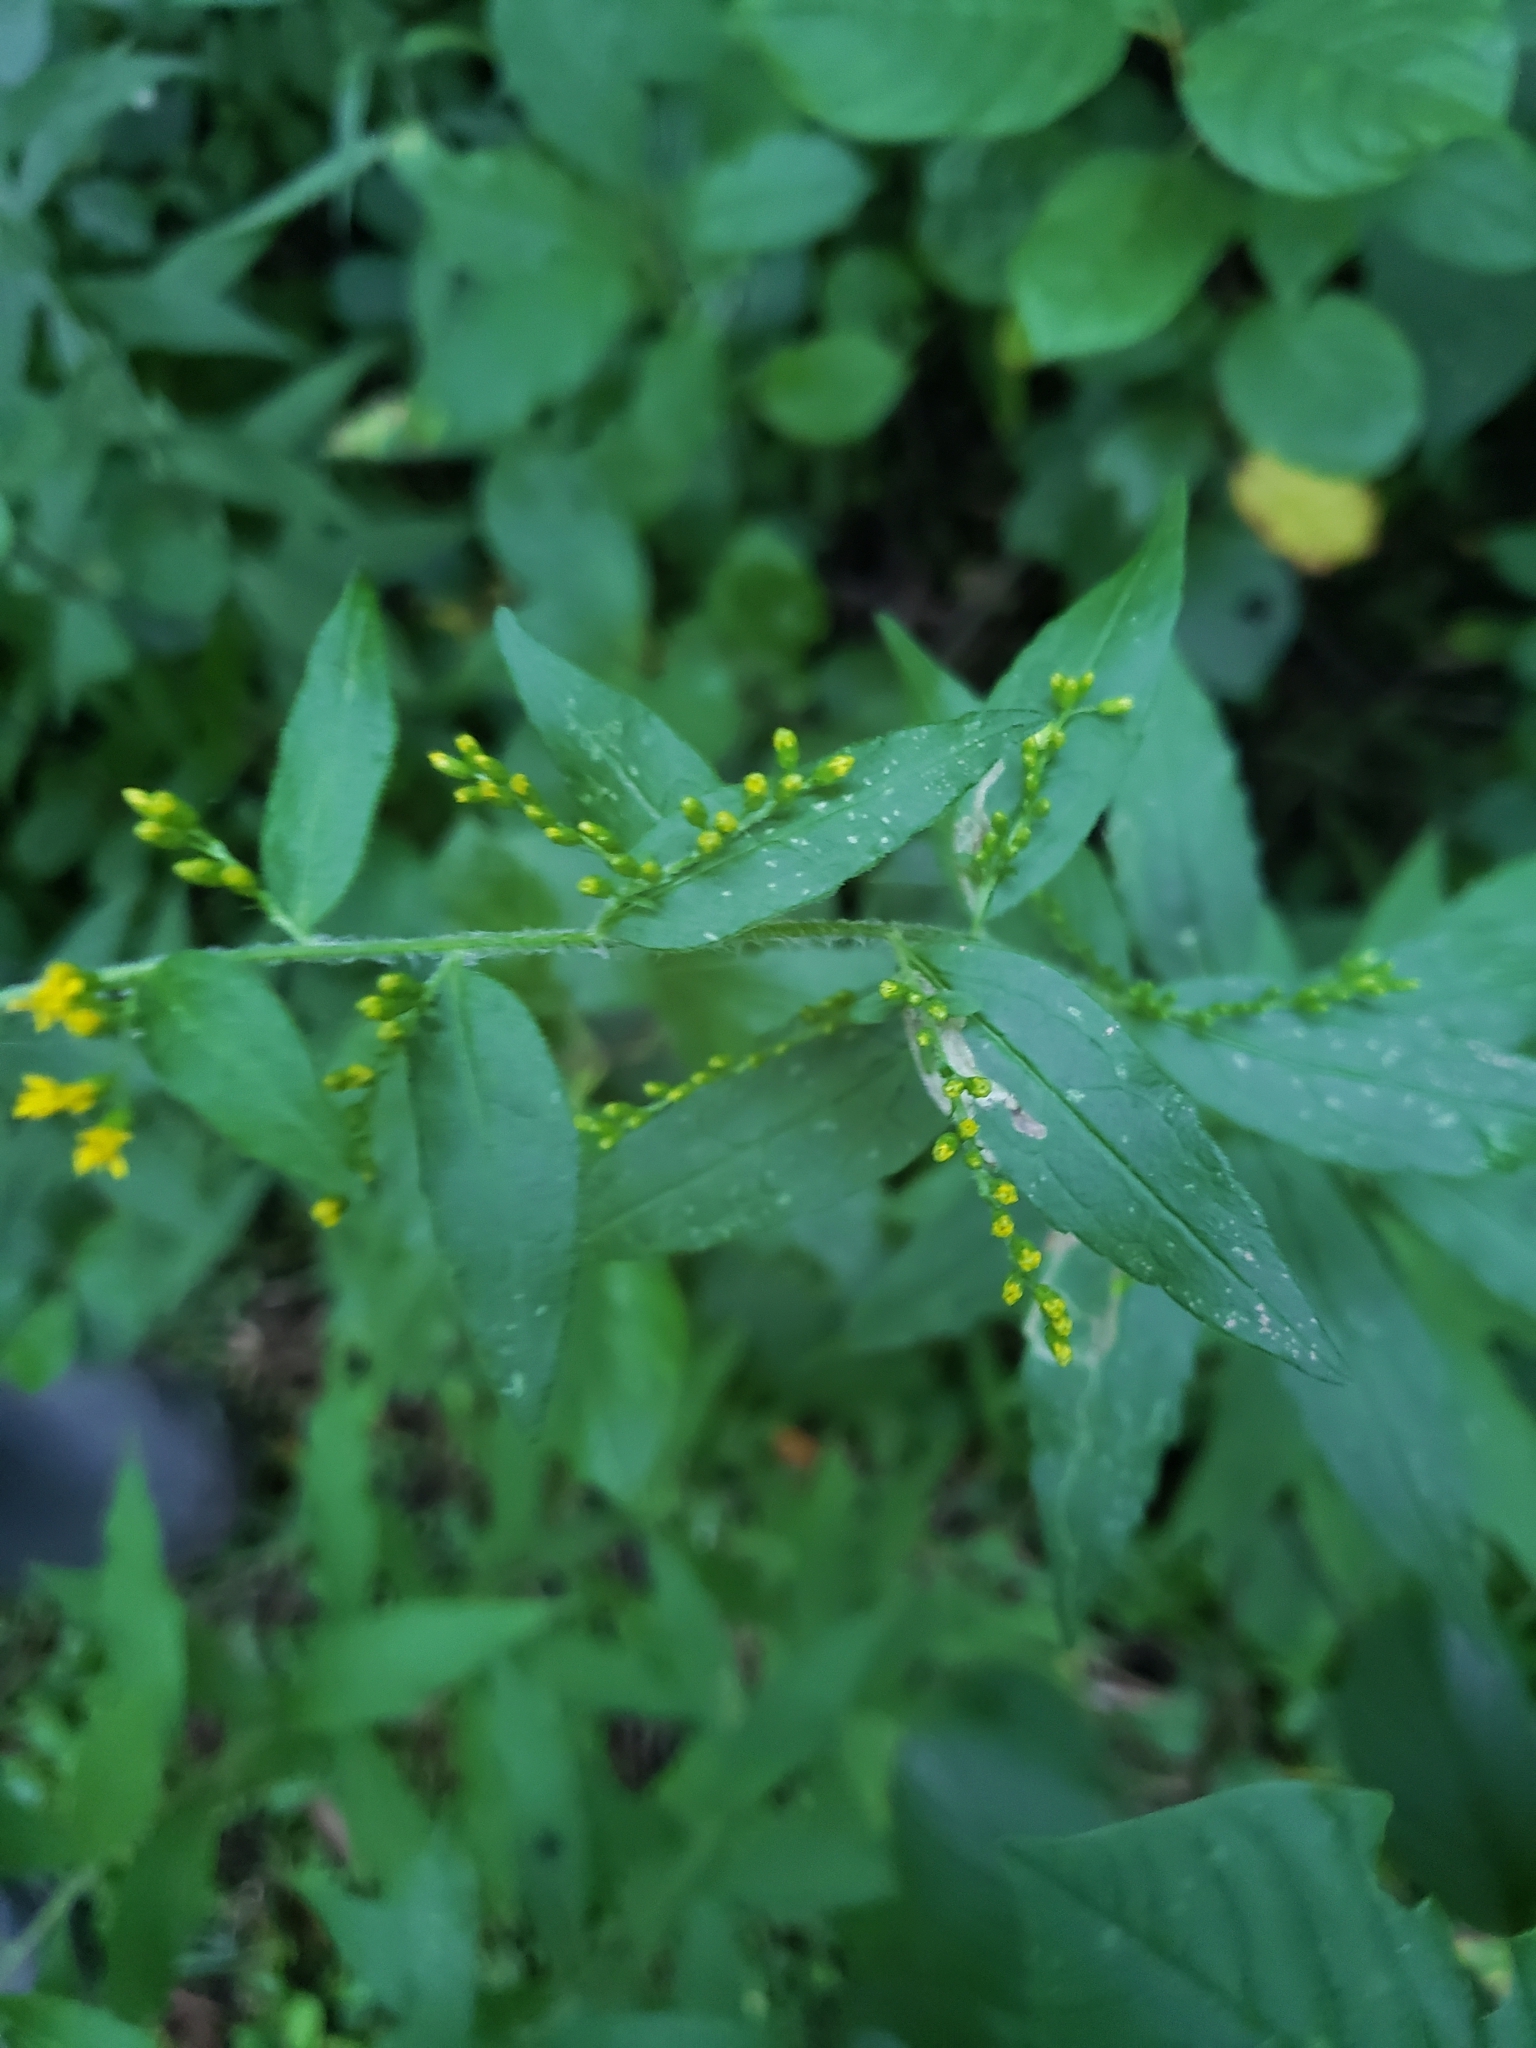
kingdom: Plantae
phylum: Tracheophyta
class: Magnoliopsida
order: Asterales
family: Asteraceae
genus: Solidago
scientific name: Solidago rugosa
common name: Rough-stemmed goldenrod
